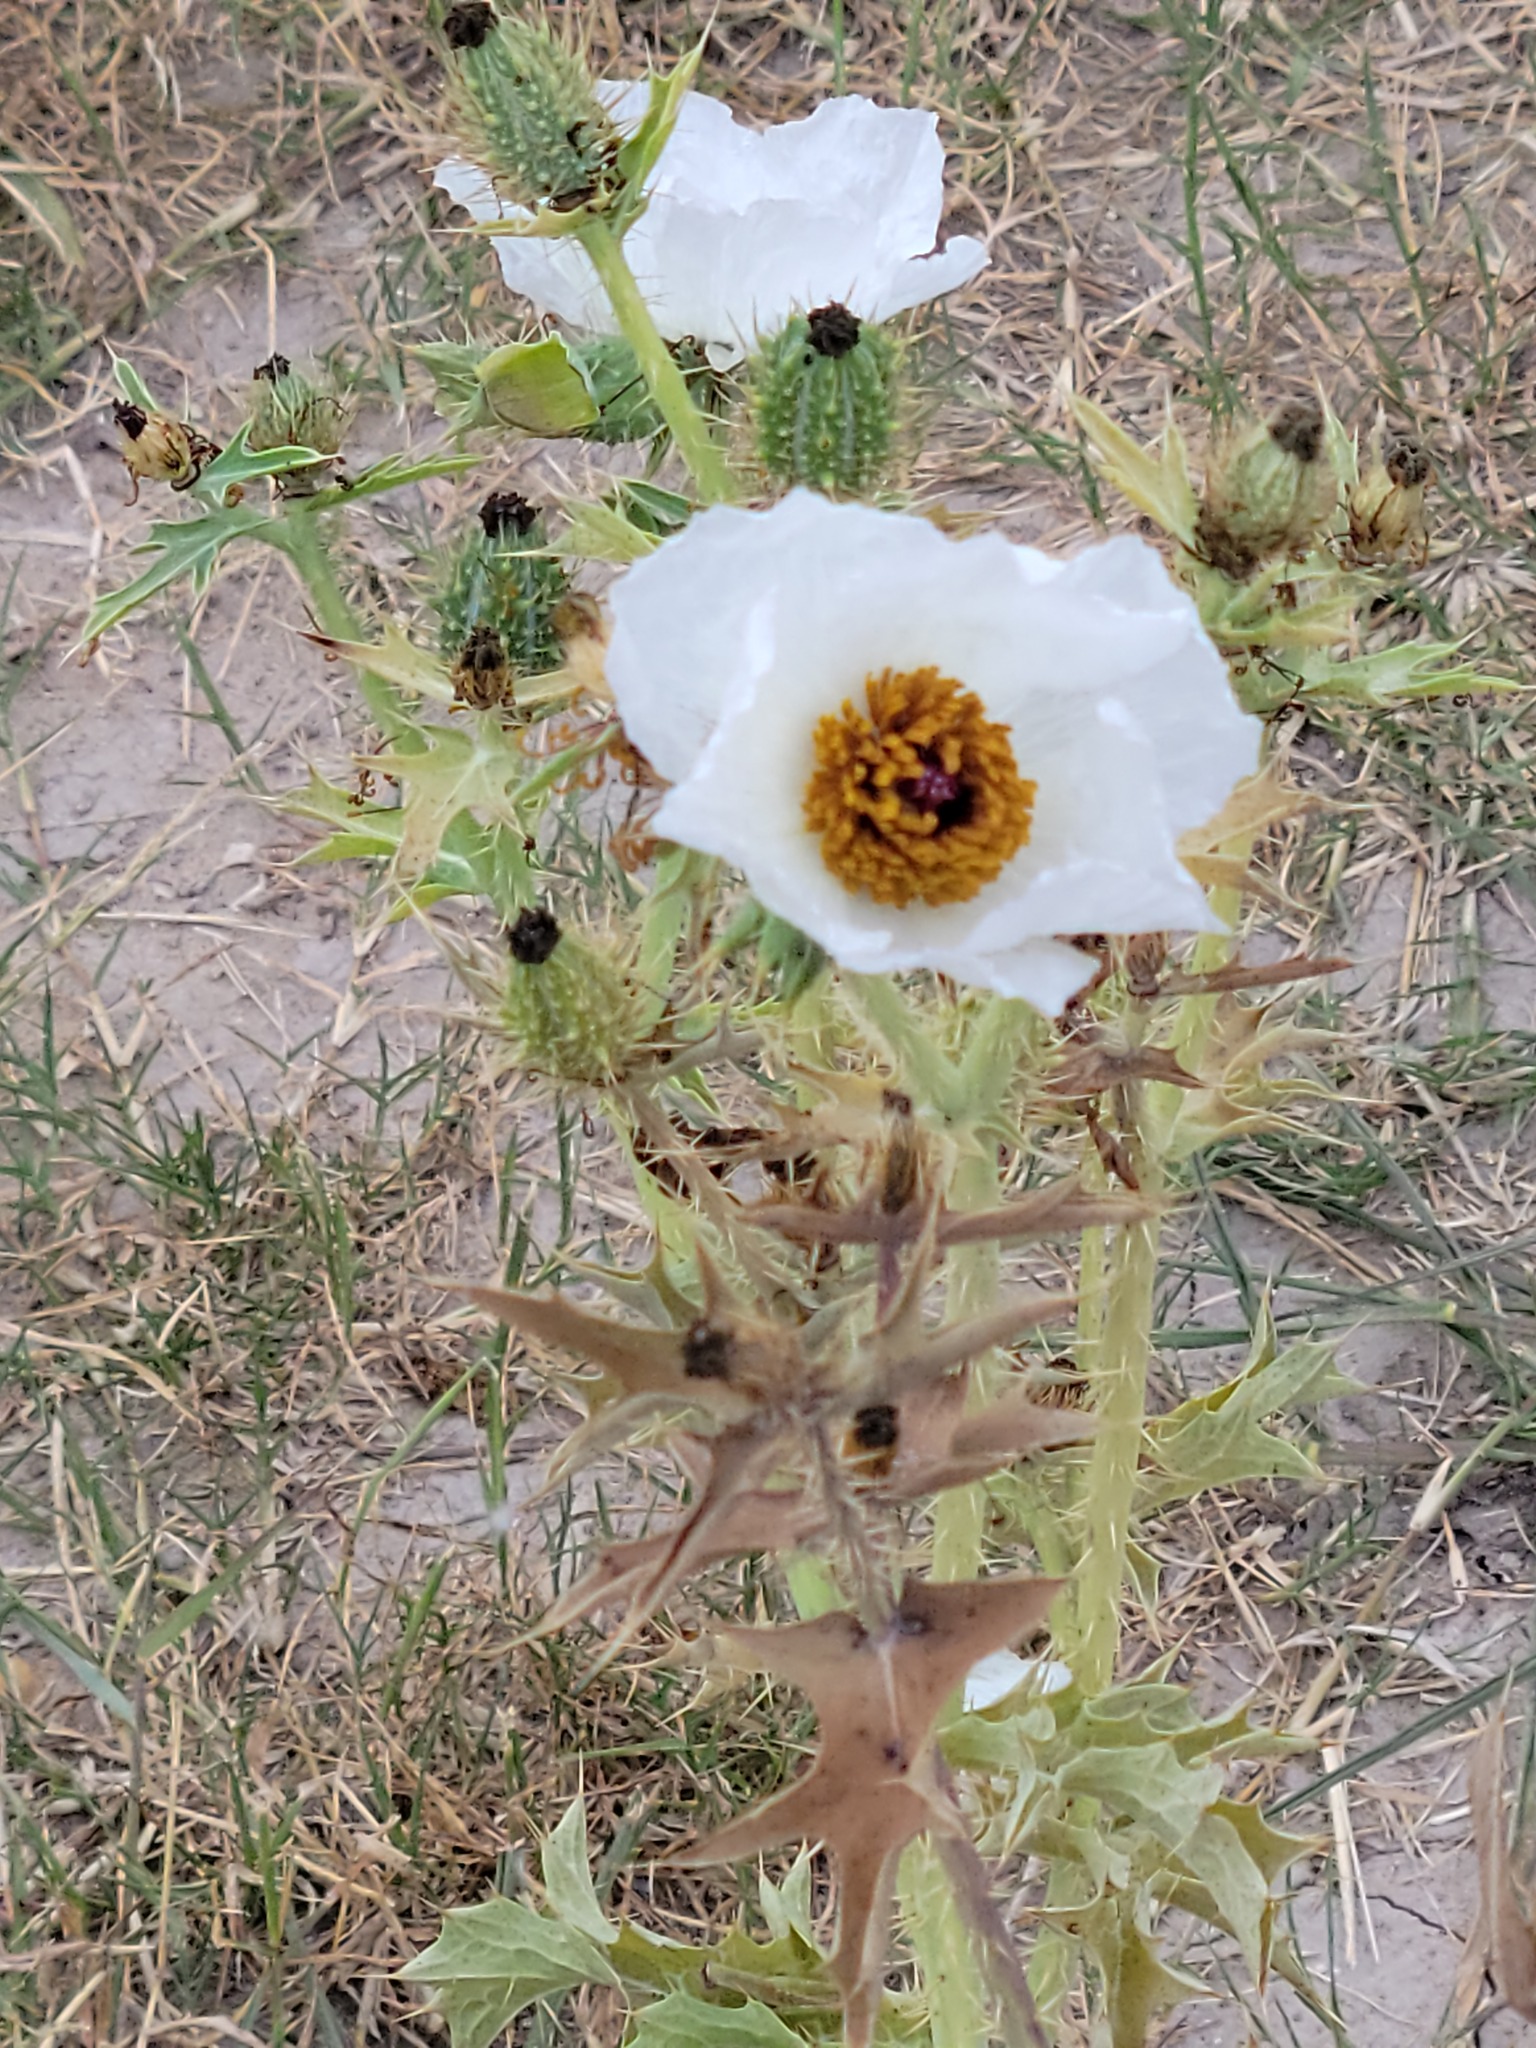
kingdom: Plantae
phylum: Tracheophyta
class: Magnoliopsida
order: Ranunculales
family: Papaveraceae
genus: Argemone
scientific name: Argemone sanguinea
